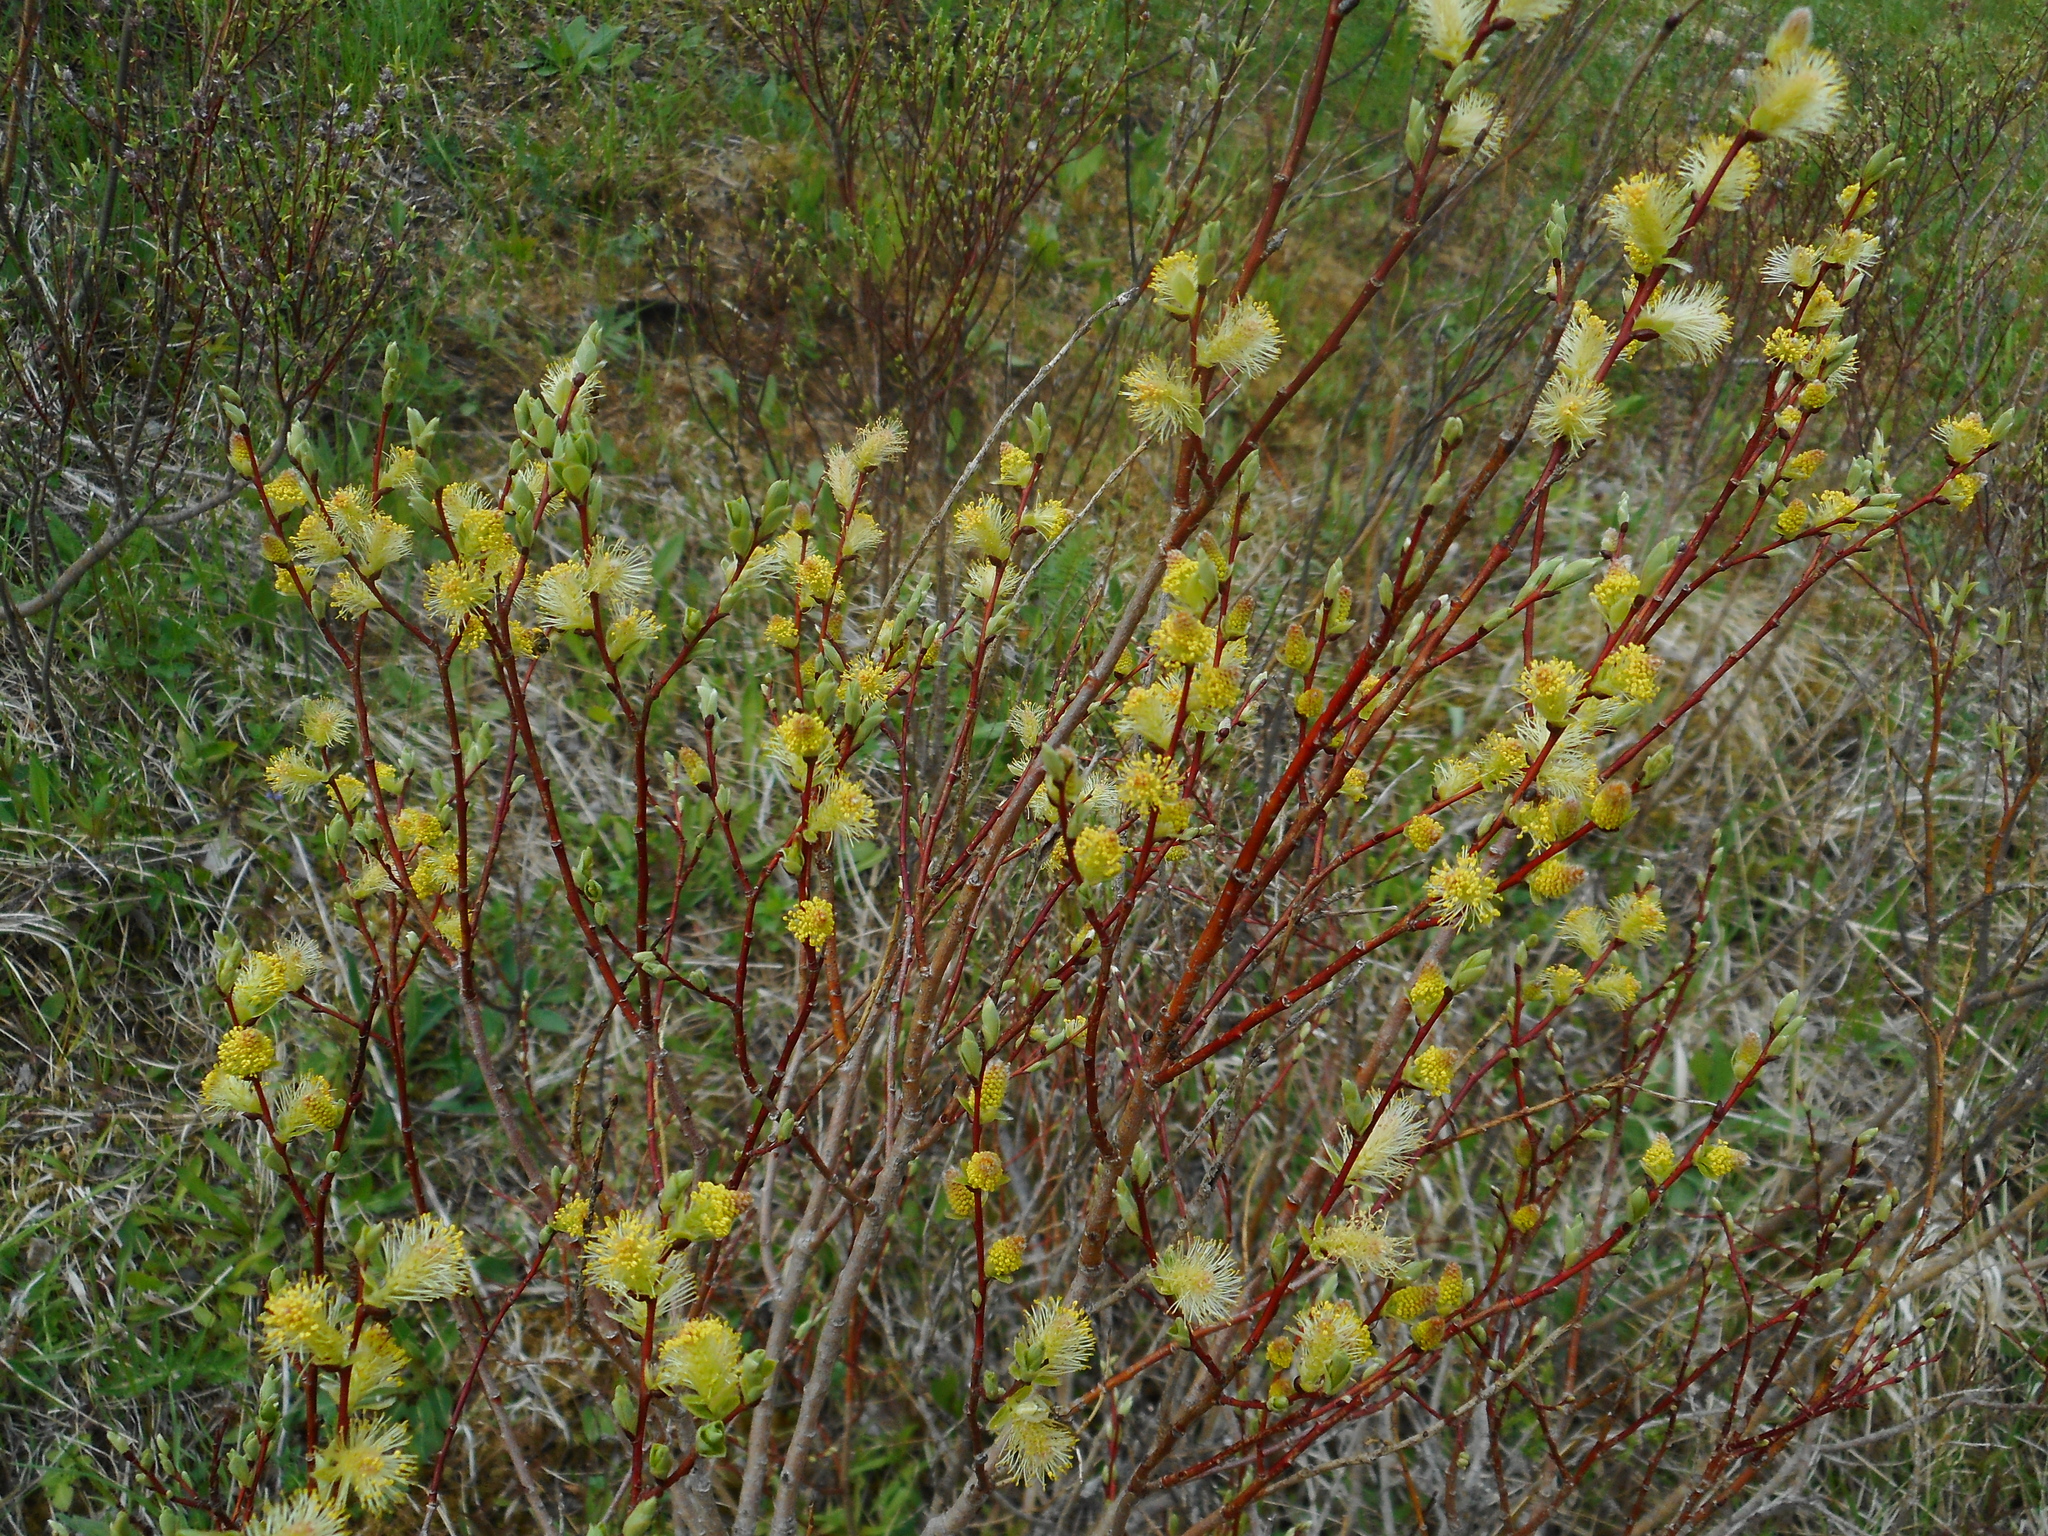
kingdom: Plantae
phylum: Tracheophyta
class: Magnoliopsida
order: Malpighiales
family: Salicaceae
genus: Salix
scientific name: Salix starkeana
